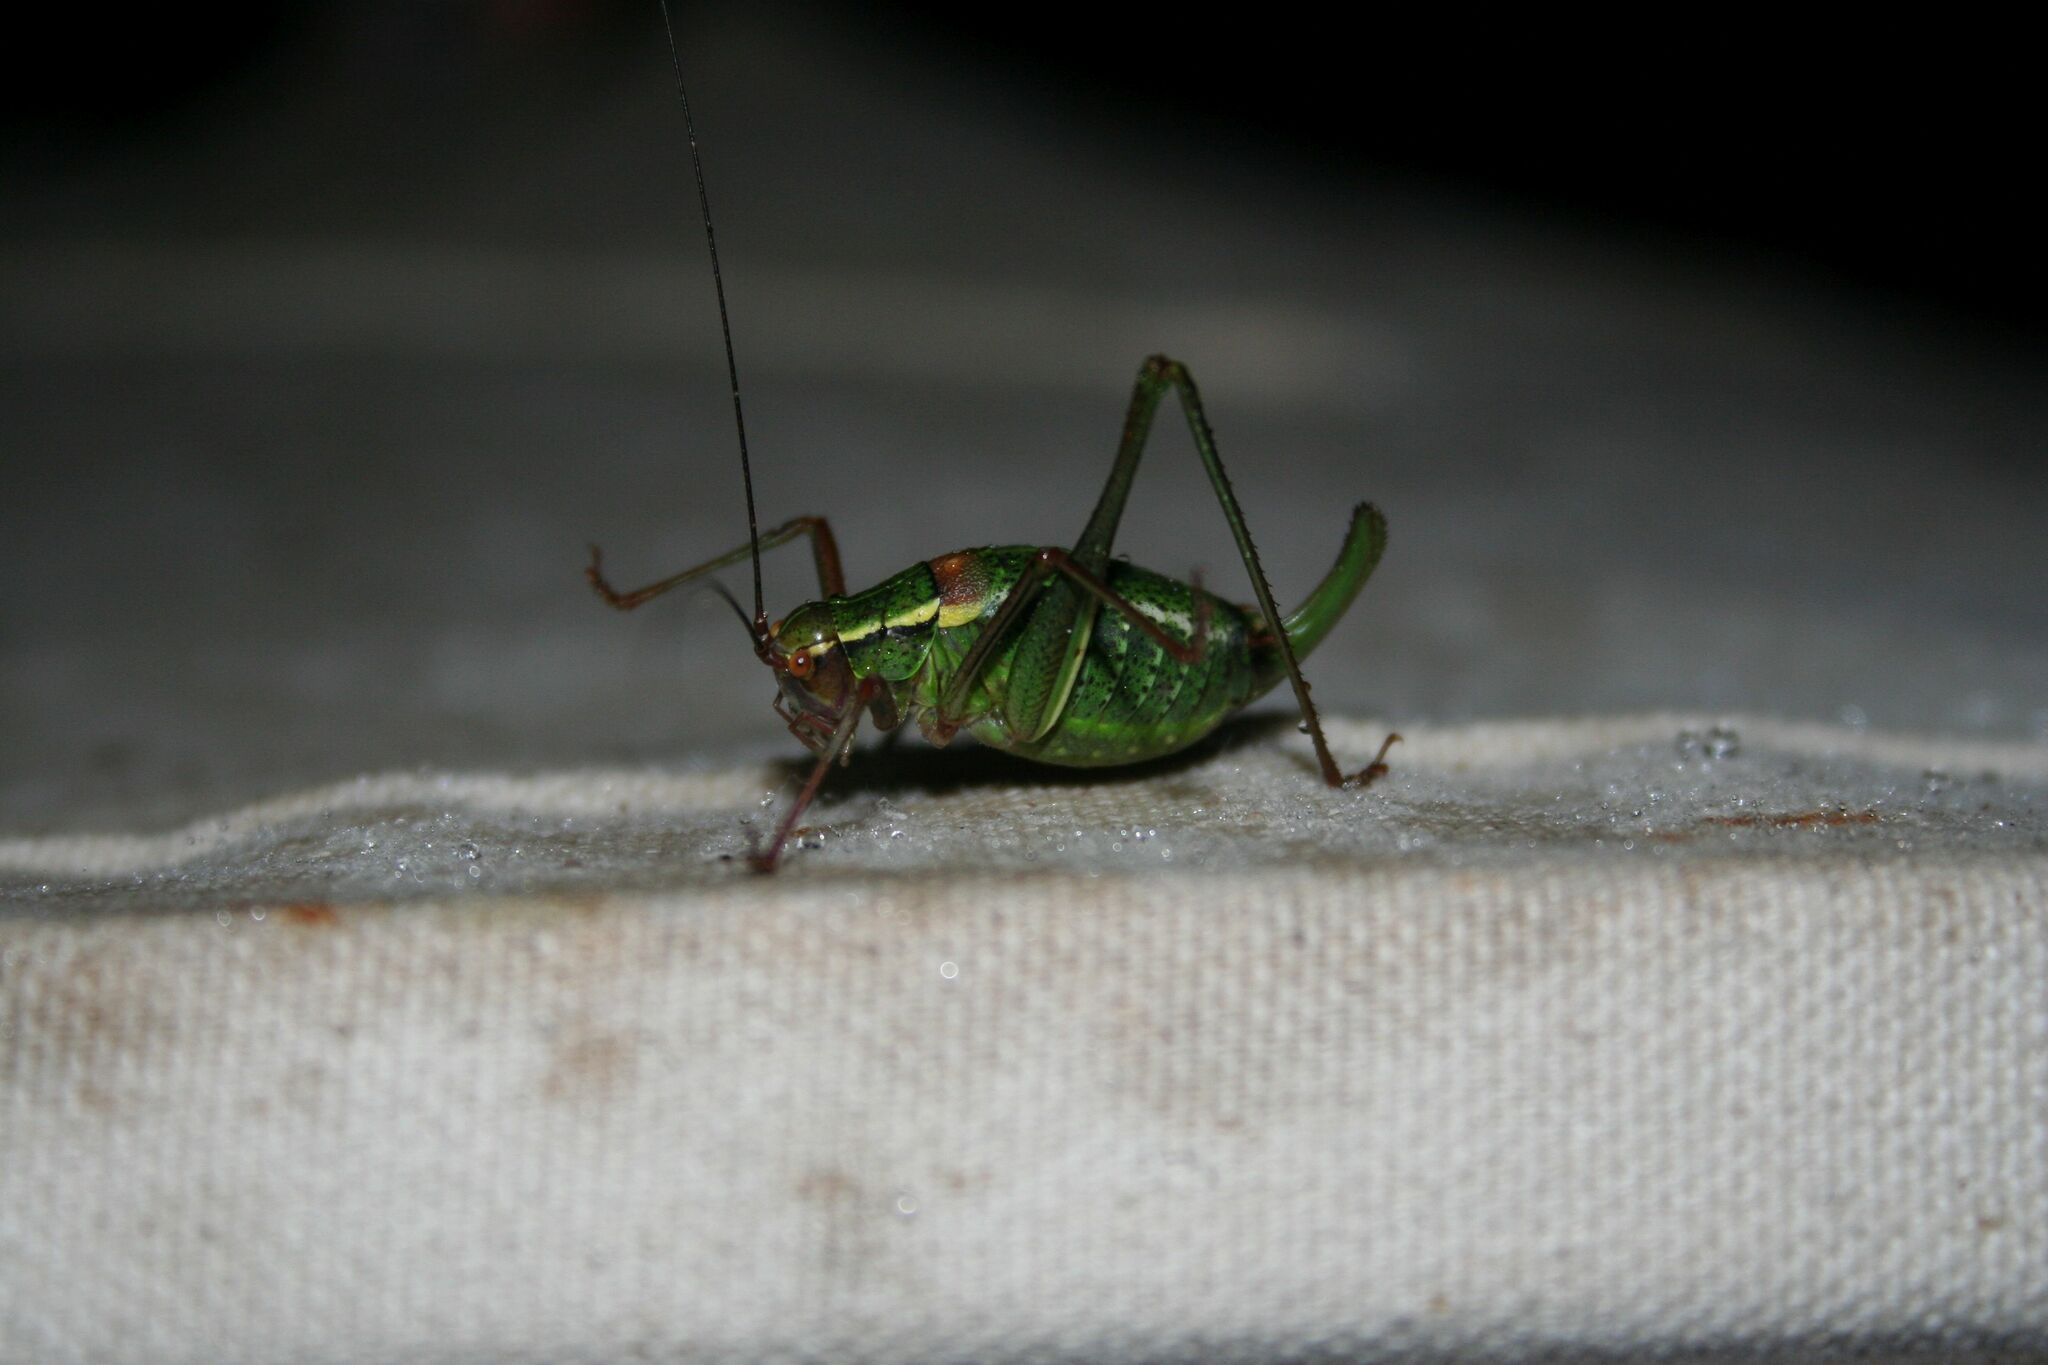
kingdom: Animalia
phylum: Arthropoda
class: Insecta
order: Orthoptera
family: Tettigoniidae
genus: Barbitistes
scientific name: Barbitistes serricauda
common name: Saw-tailed bush-cricket
